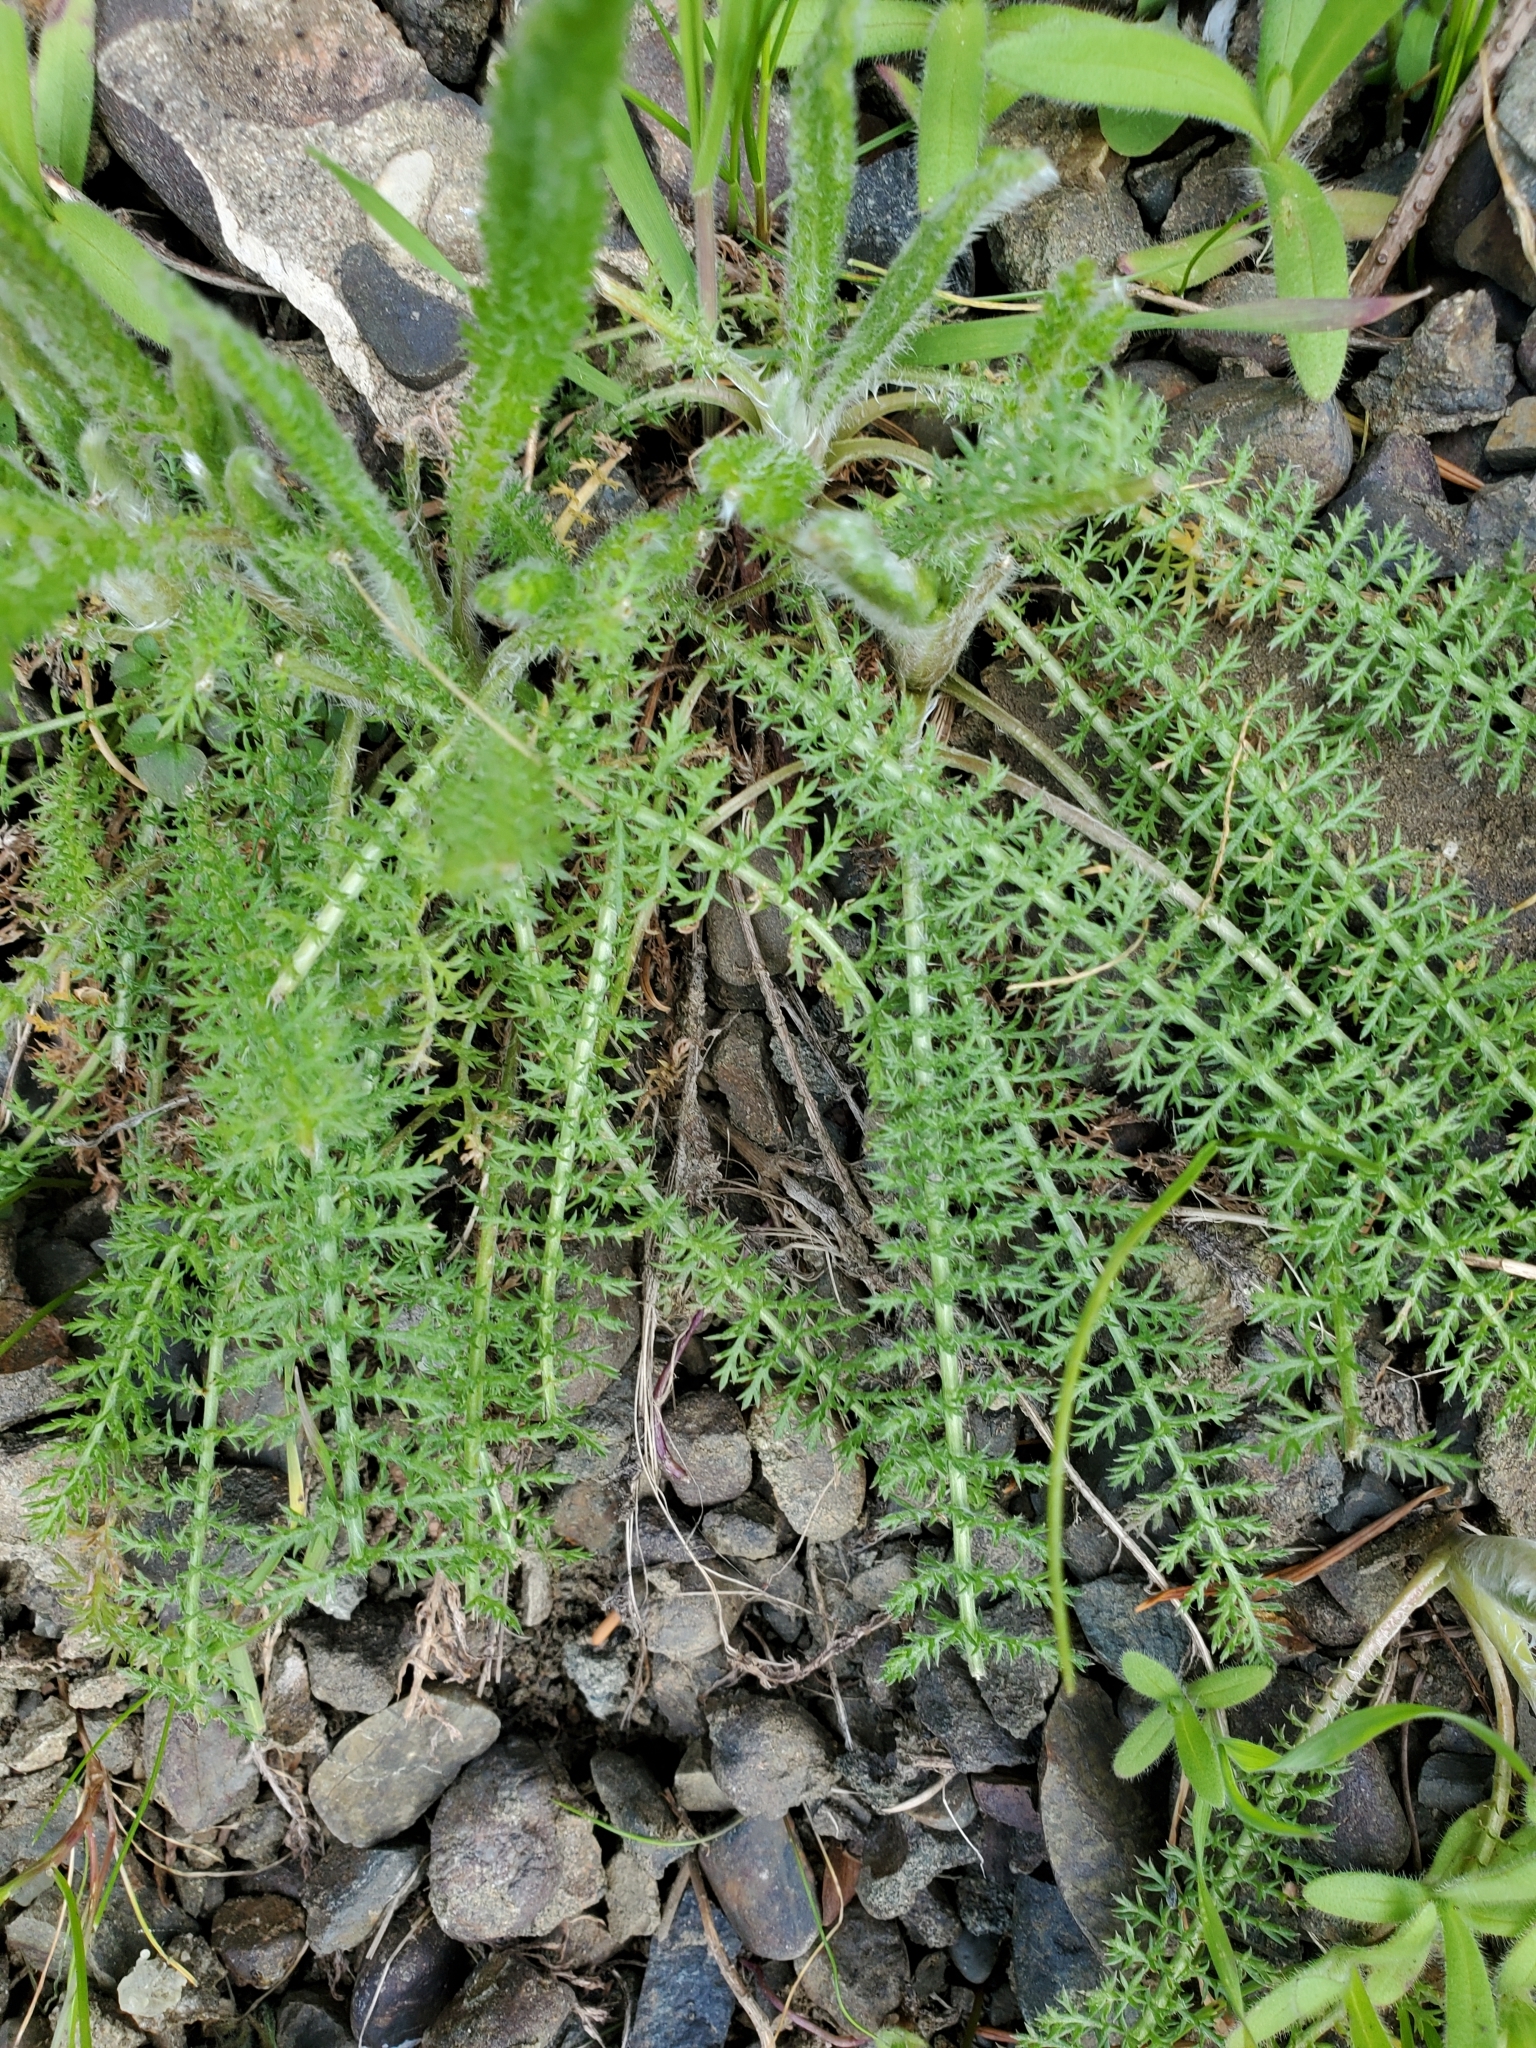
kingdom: Plantae
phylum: Tracheophyta
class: Magnoliopsida
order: Asterales
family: Asteraceae
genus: Achillea
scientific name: Achillea millefolium
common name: Yarrow
